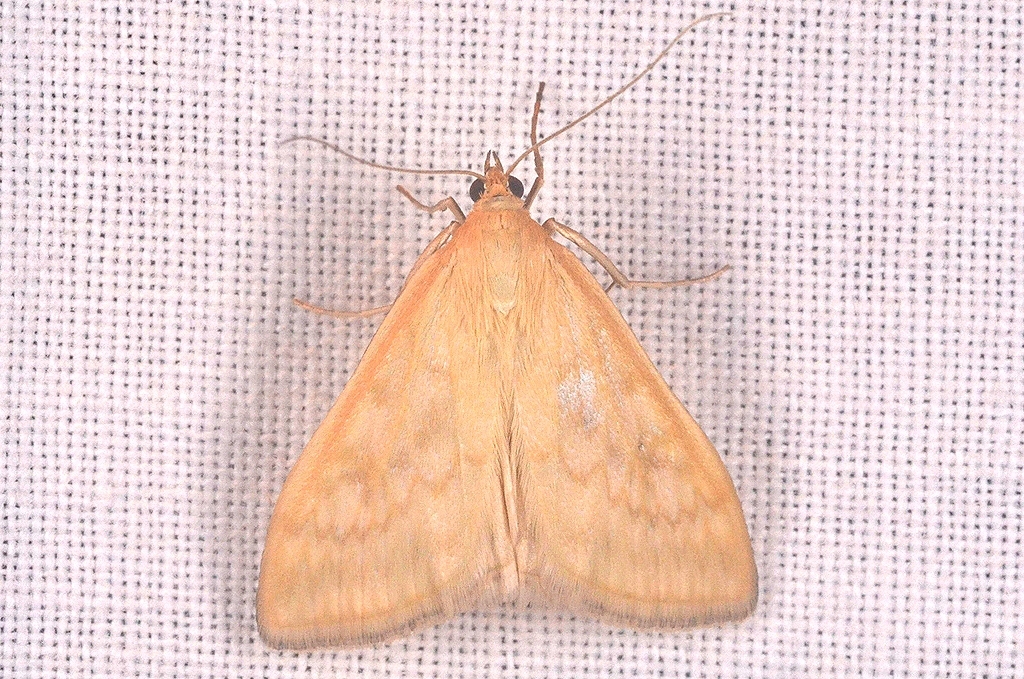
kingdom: Animalia
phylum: Arthropoda
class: Insecta
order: Lepidoptera
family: Crambidae
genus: Sitochroa
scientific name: Sitochroa verticalis
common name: Lesser pearl
